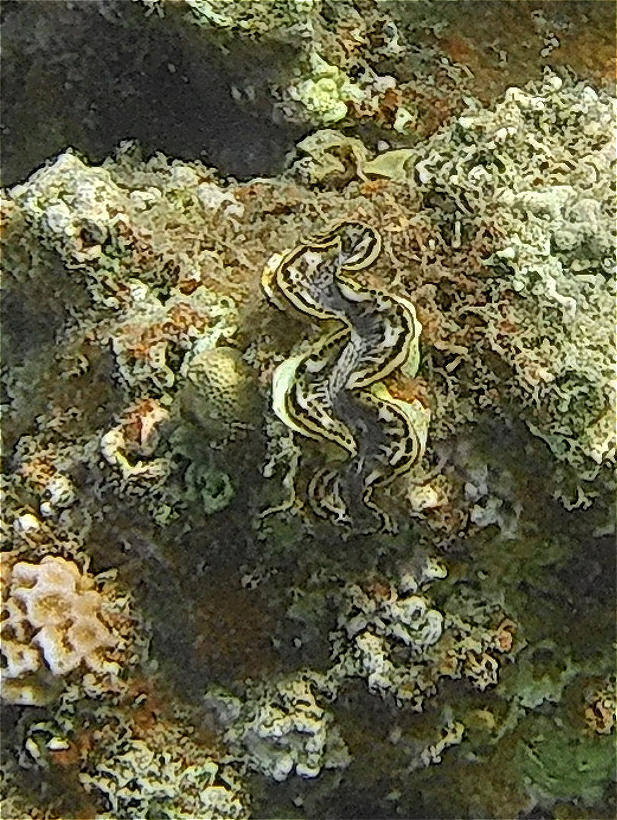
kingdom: Animalia
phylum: Mollusca
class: Bivalvia
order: Cardiida
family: Cardiidae
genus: Tridacna
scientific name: Tridacna maxima
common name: Small giant clam
